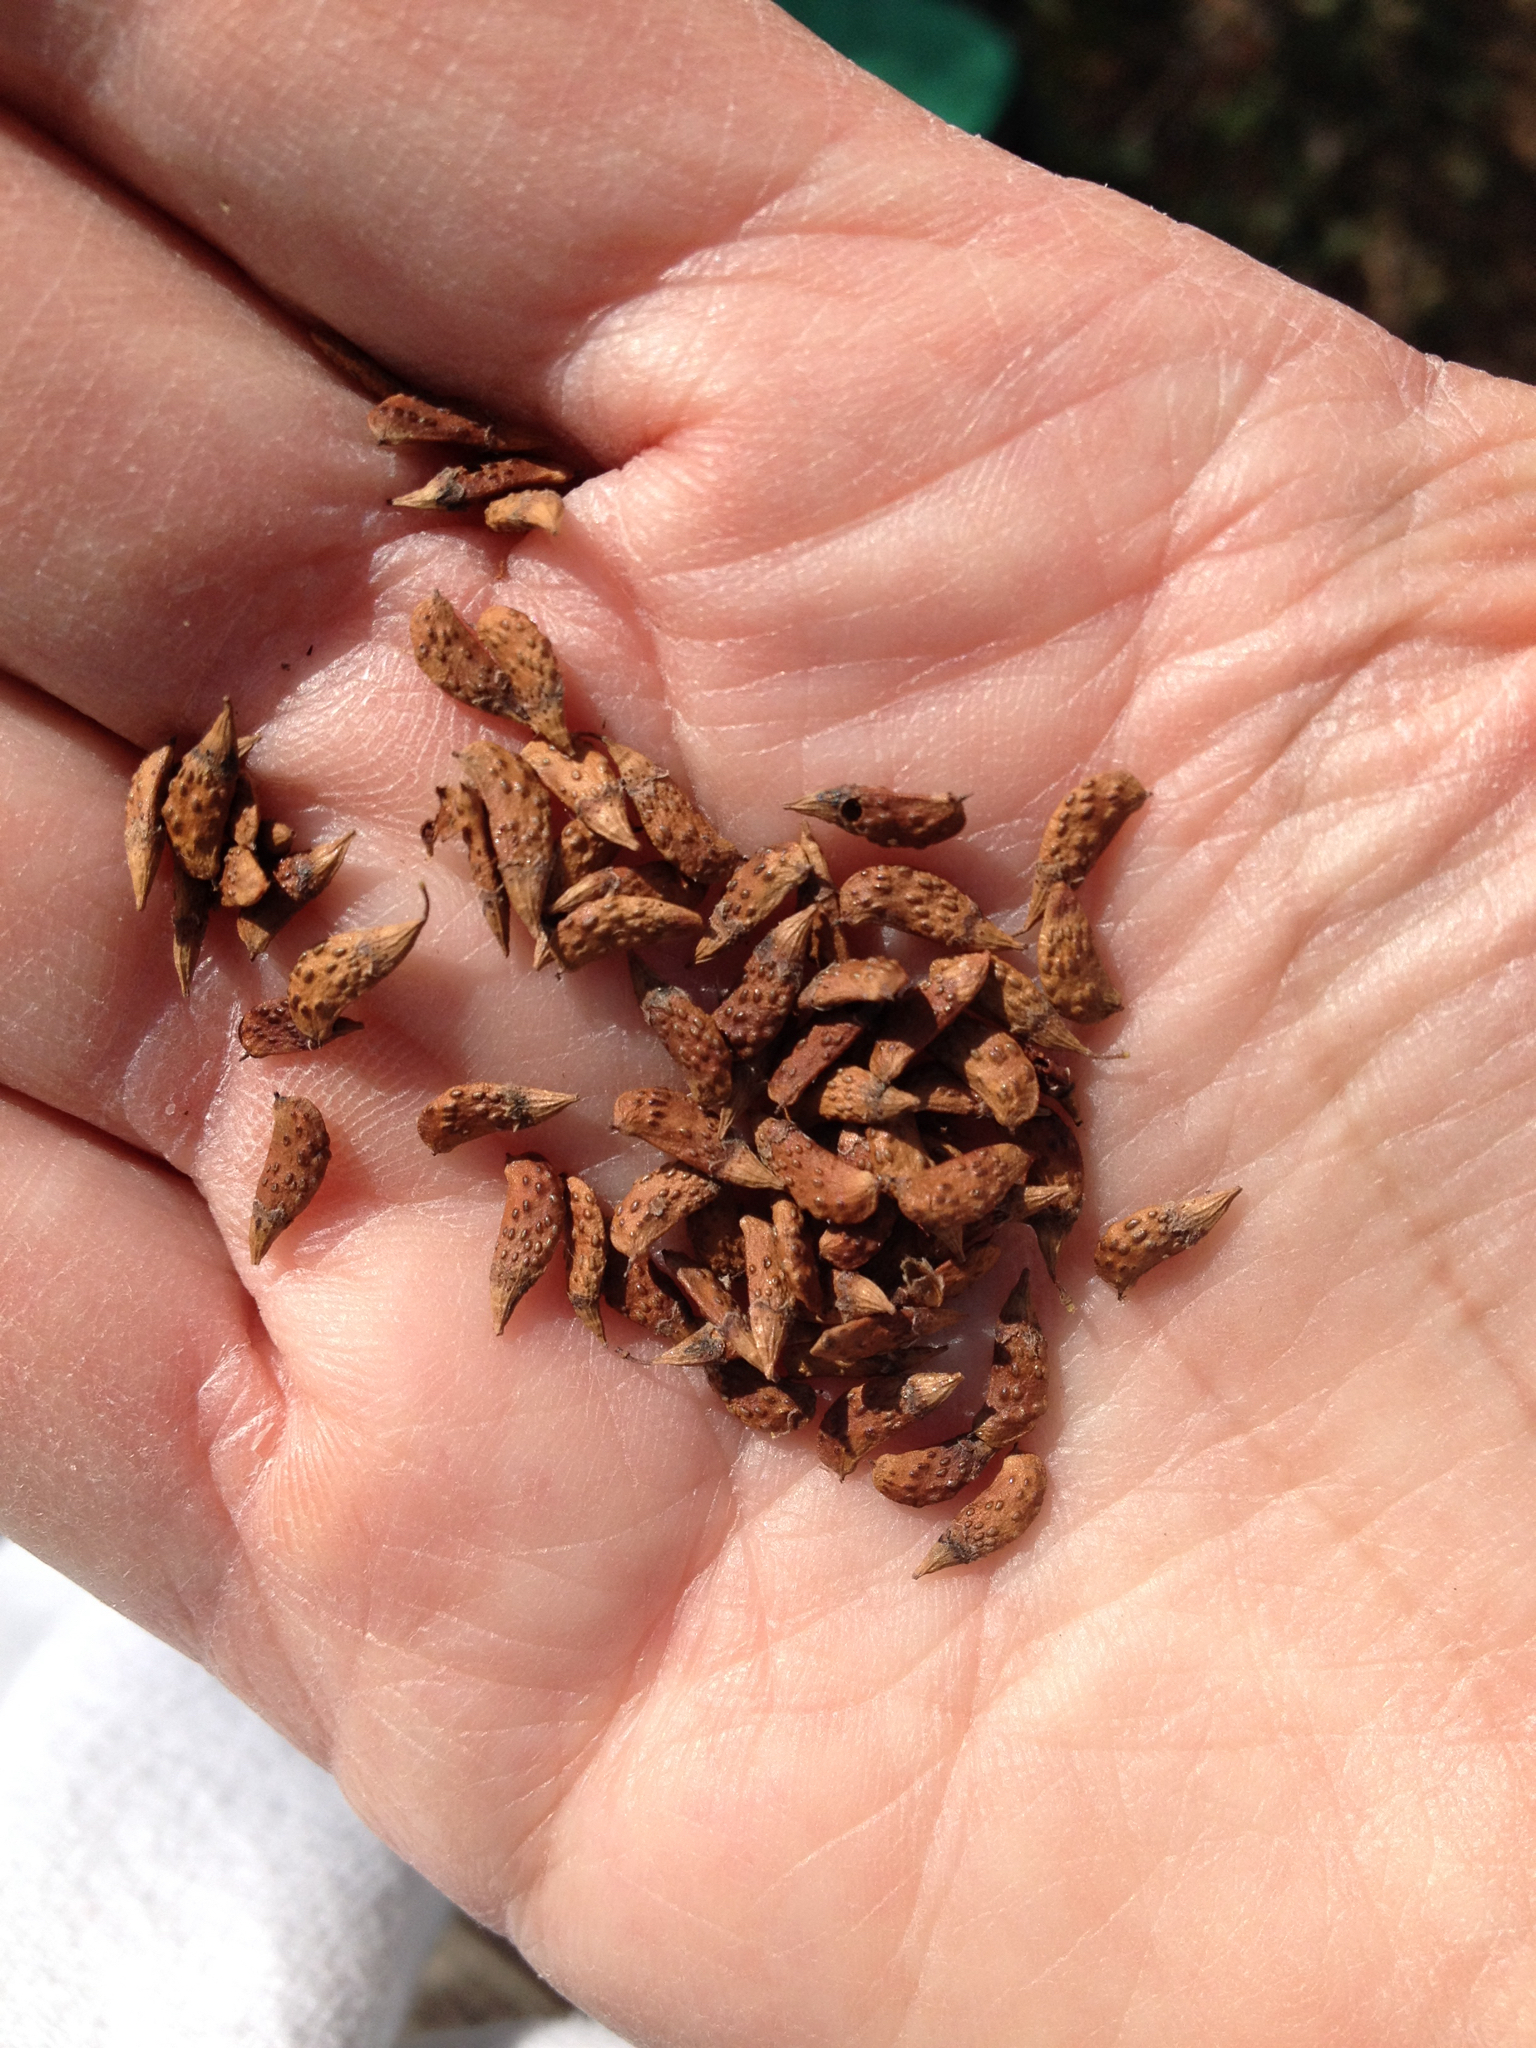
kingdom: Plantae
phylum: Tracheophyta
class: Magnoliopsida
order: Asterales
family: Asteraceae
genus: Verbesina
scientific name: Verbesina encelioides
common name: Golden crownbeard
